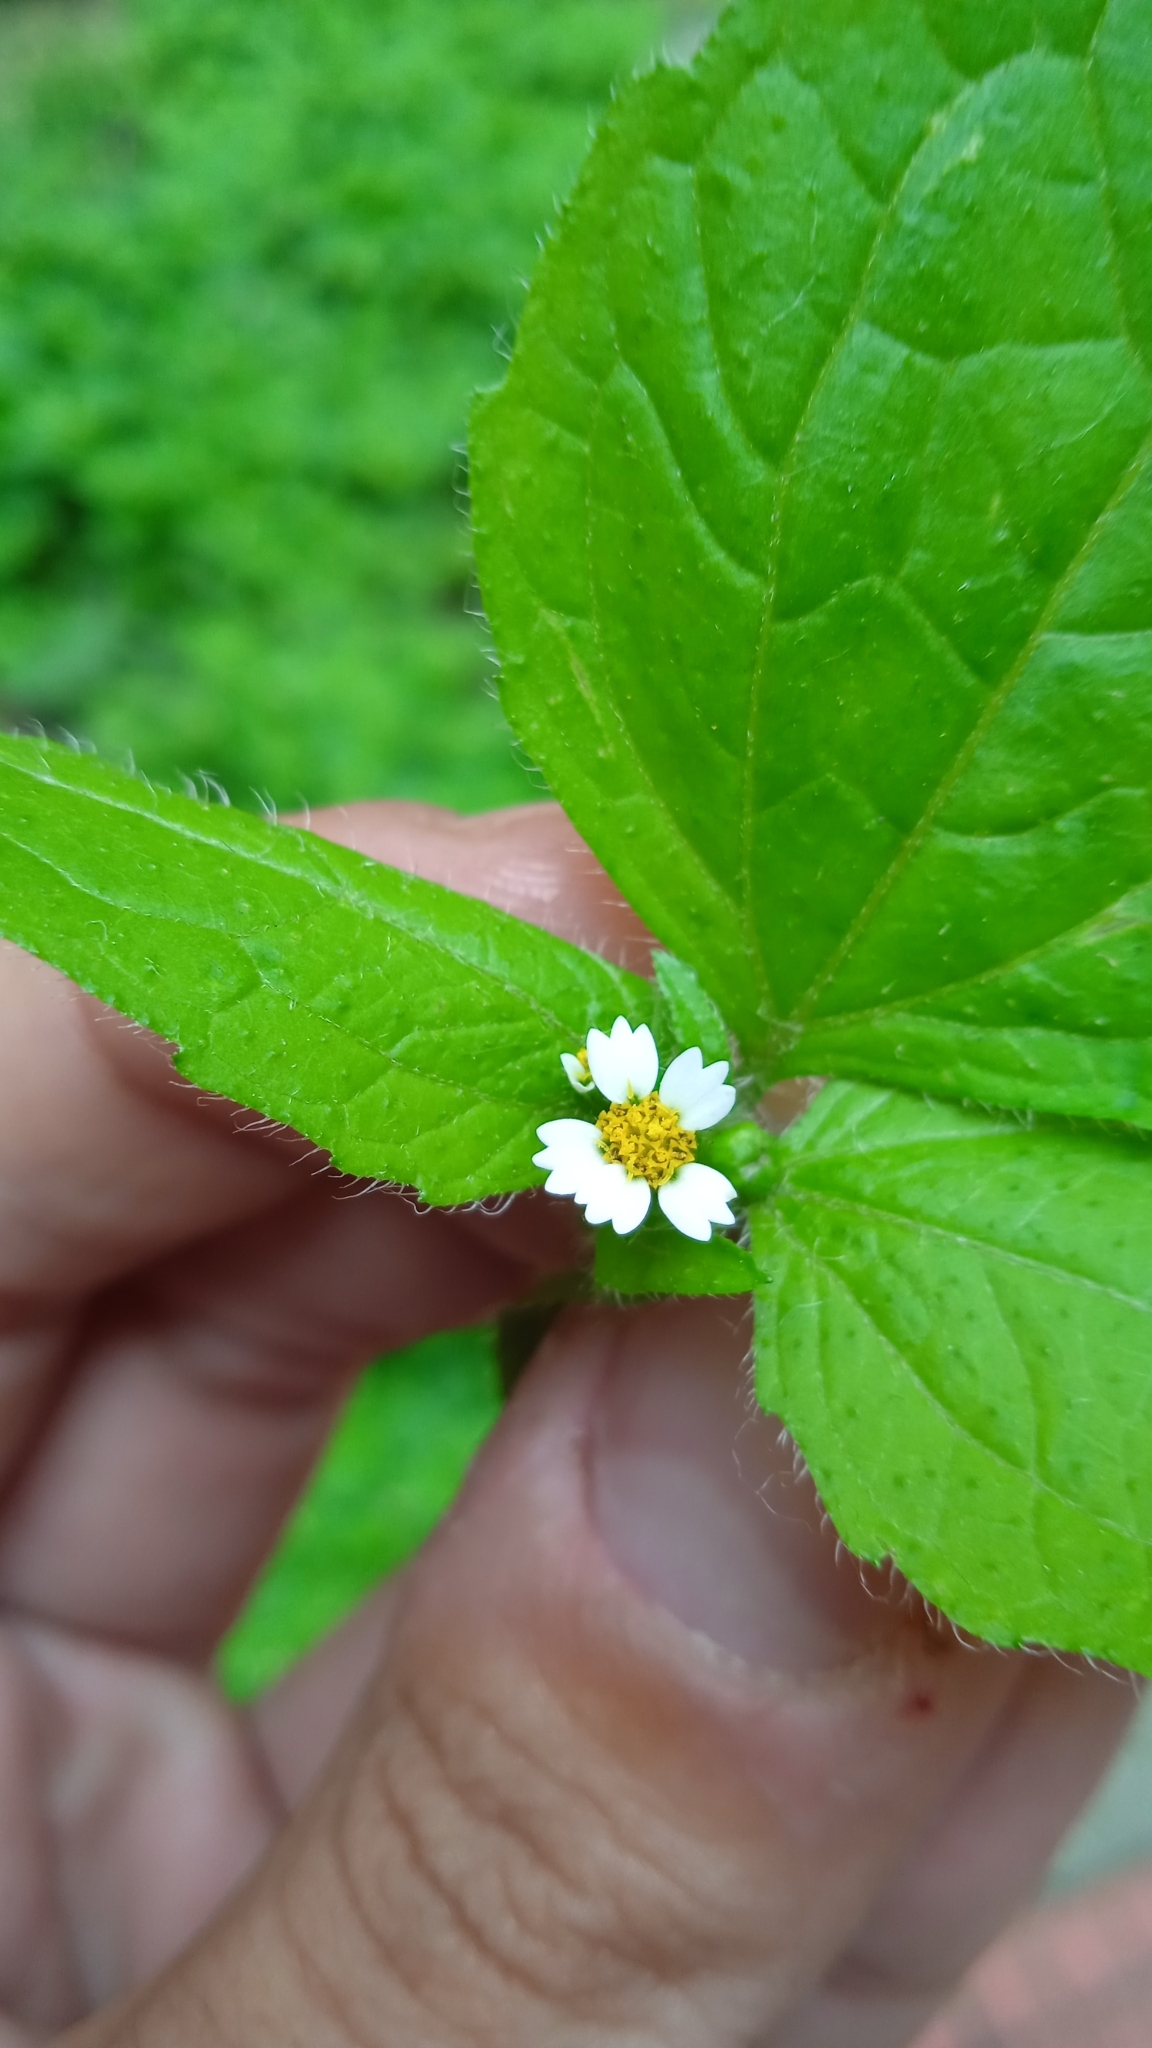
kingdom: Plantae
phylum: Tracheophyta
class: Magnoliopsida
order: Asterales
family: Asteraceae
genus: Galinsoga
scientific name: Galinsoga quadriradiata
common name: Shaggy soldier
